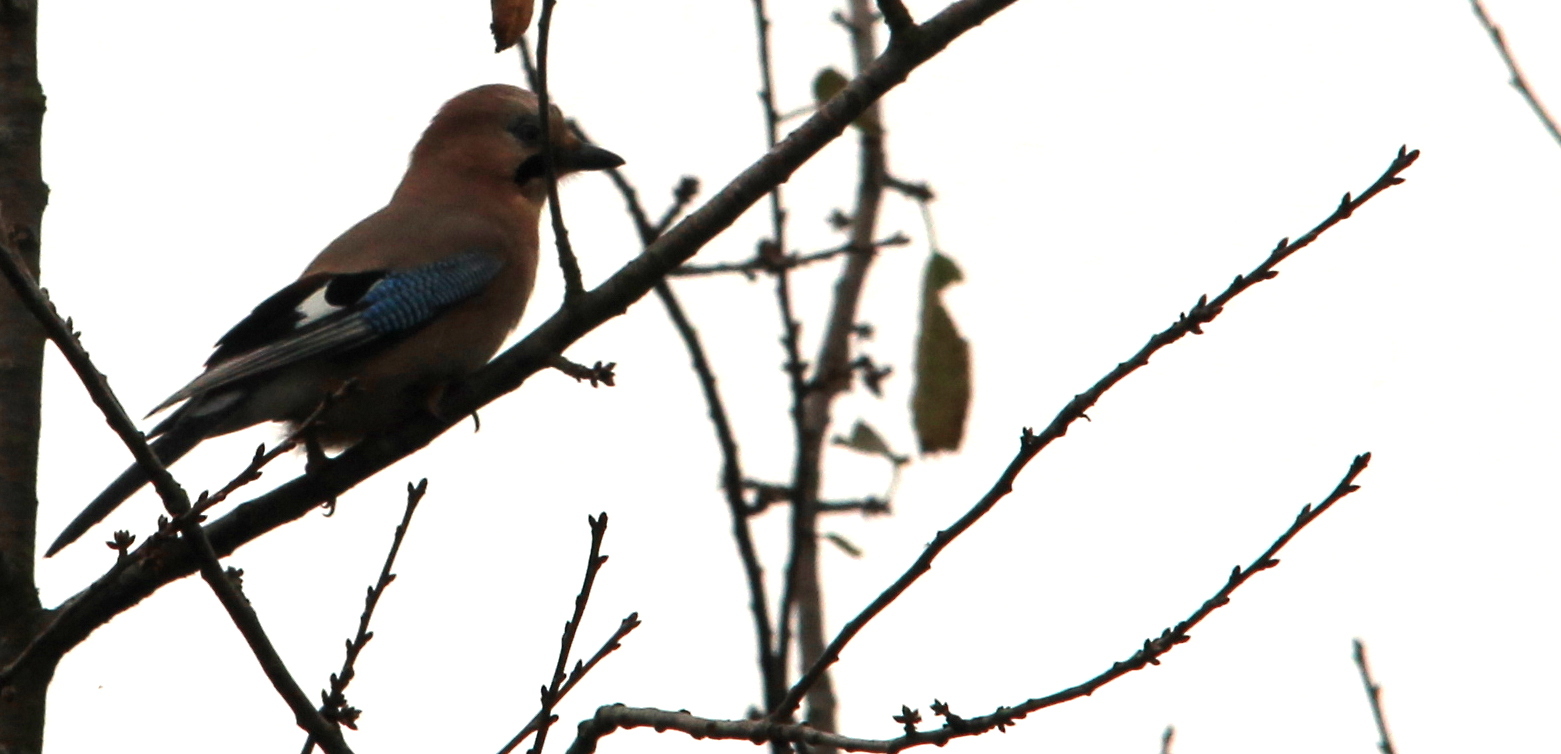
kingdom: Animalia
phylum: Chordata
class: Aves
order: Passeriformes
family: Corvidae
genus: Garrulus
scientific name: Garrulus glandarius
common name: Eurasian jay
